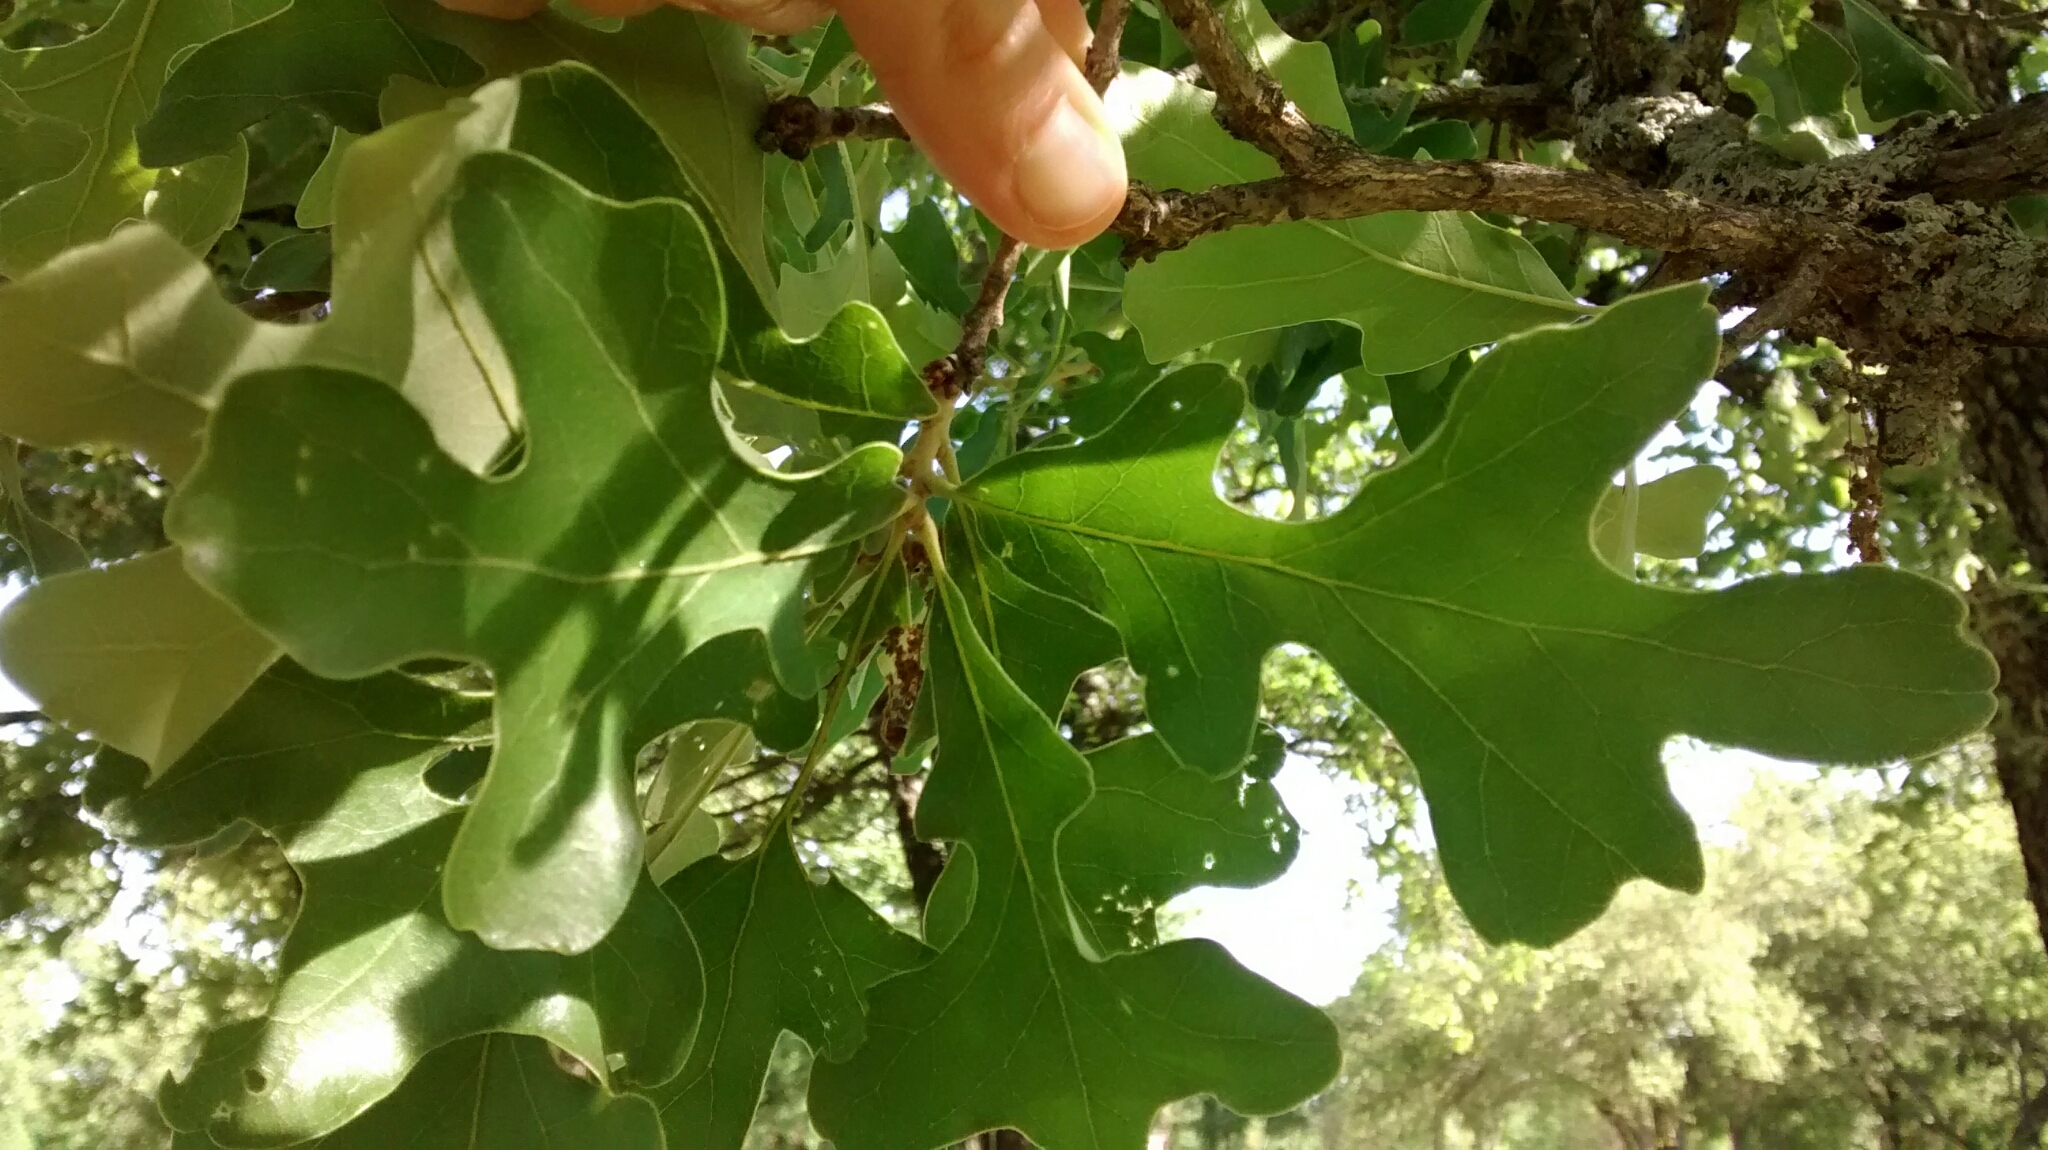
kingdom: Plantae
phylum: Tracheophyta
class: Magnoliopsida
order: Fagales
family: Fagaceae
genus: Quercus
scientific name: Quercus stellata
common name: Post oak
